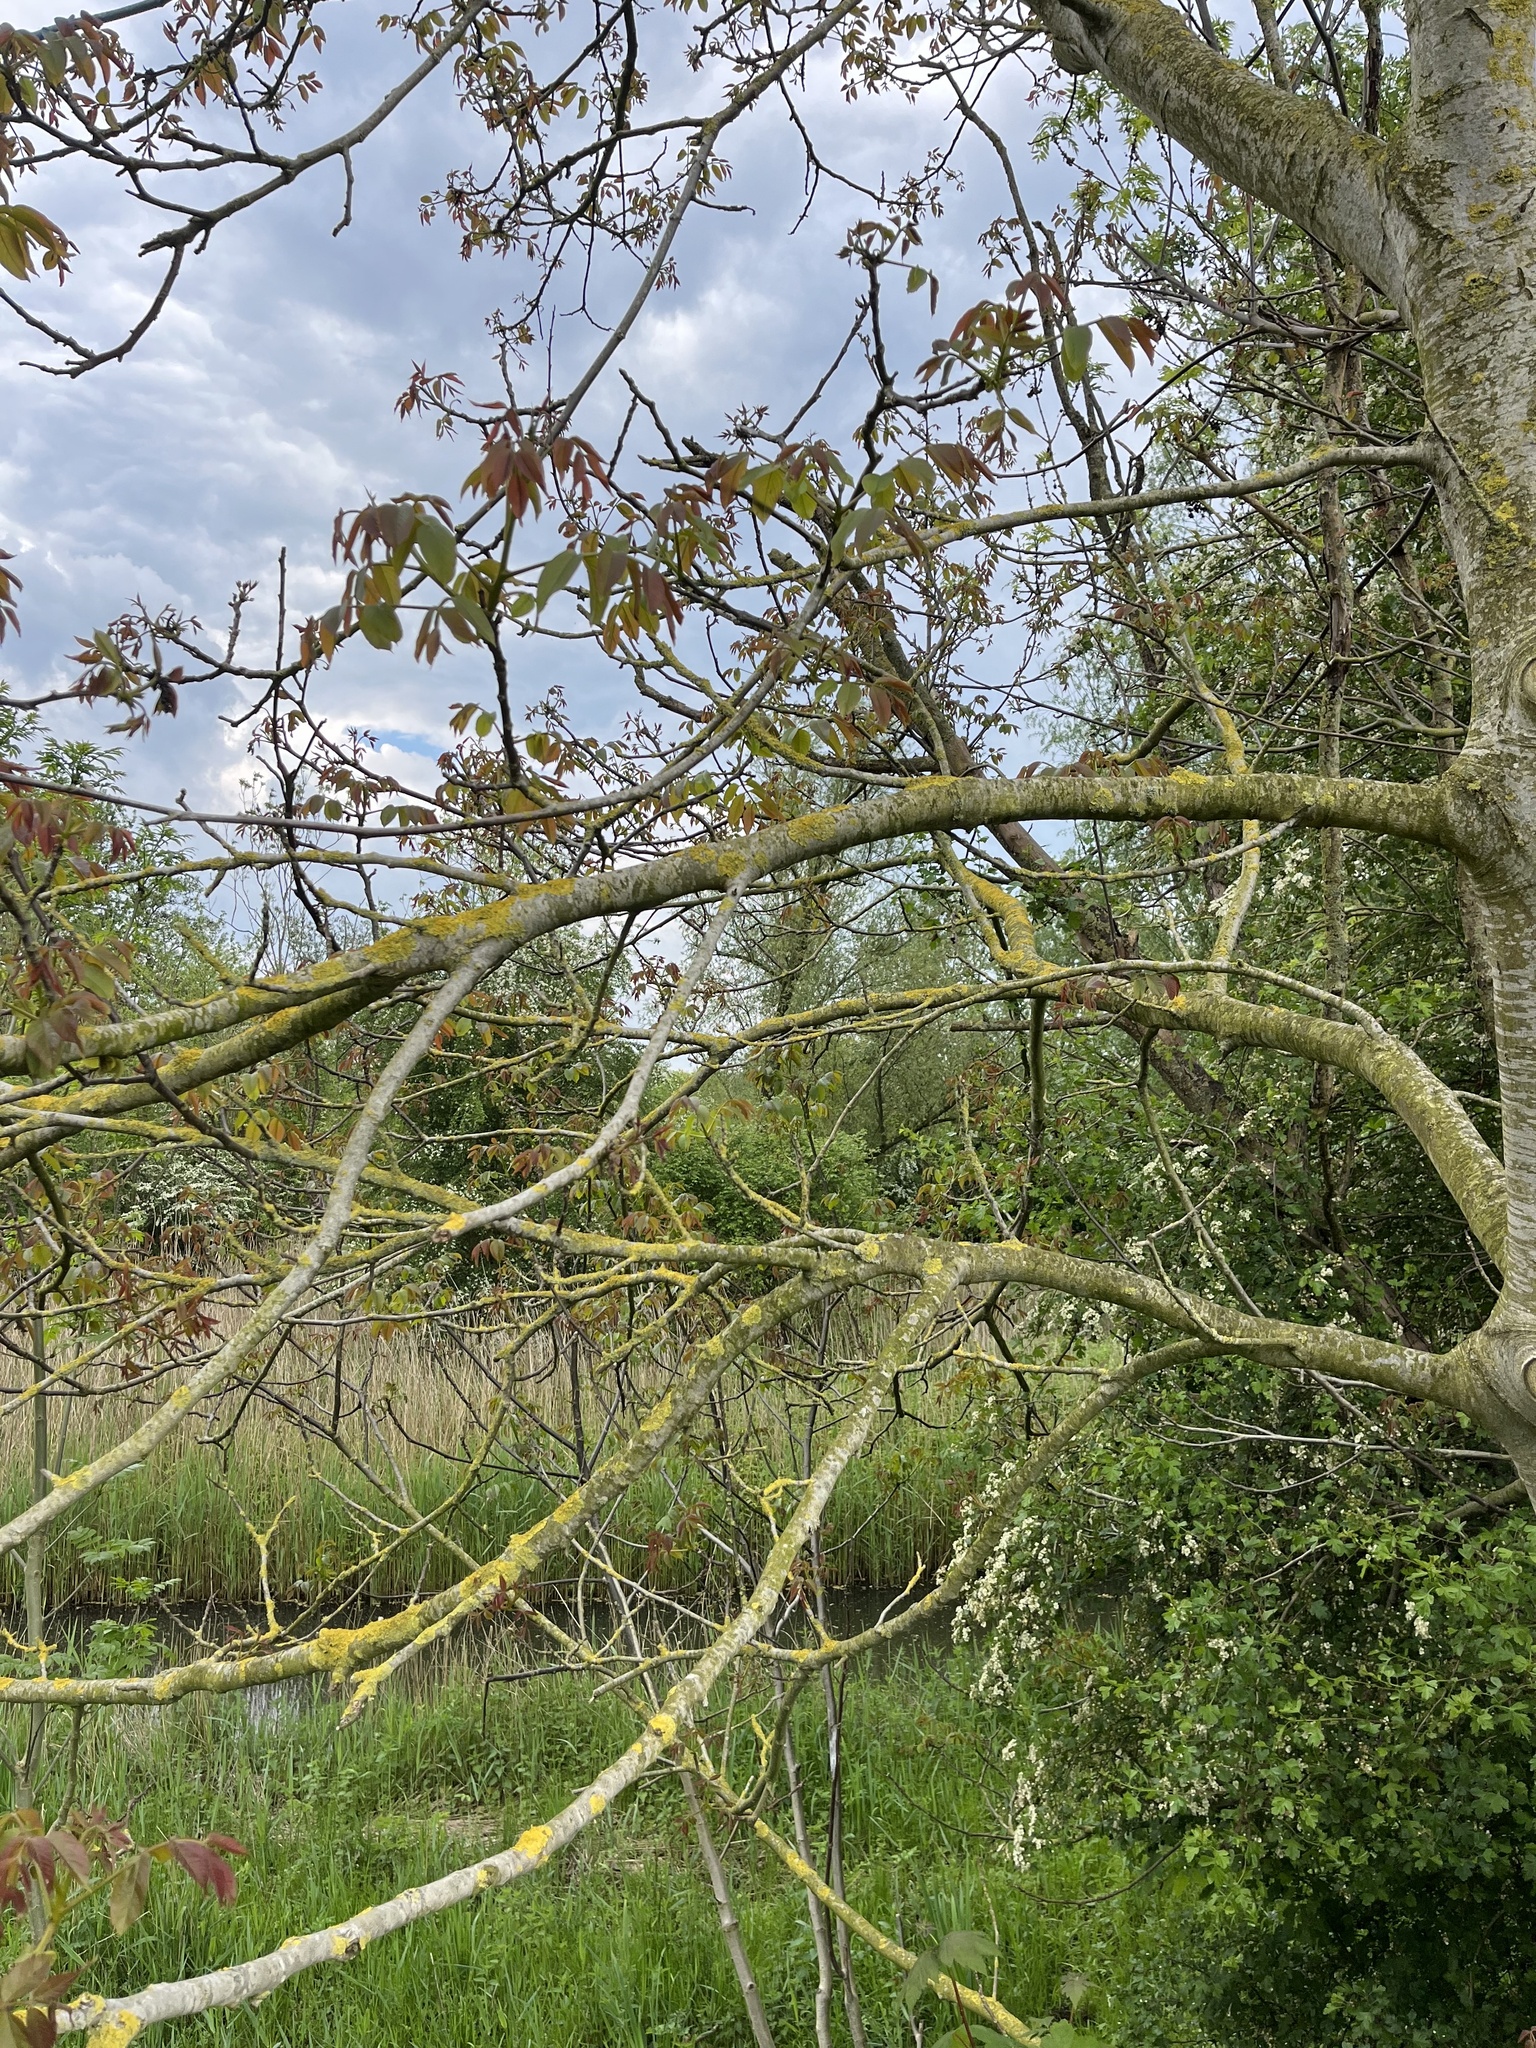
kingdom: Plantae
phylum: Tracheophyta
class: Magnoliopsida
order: Fagales
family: Juglandaceae
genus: Juglans
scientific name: Juglans regia
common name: Walnut
